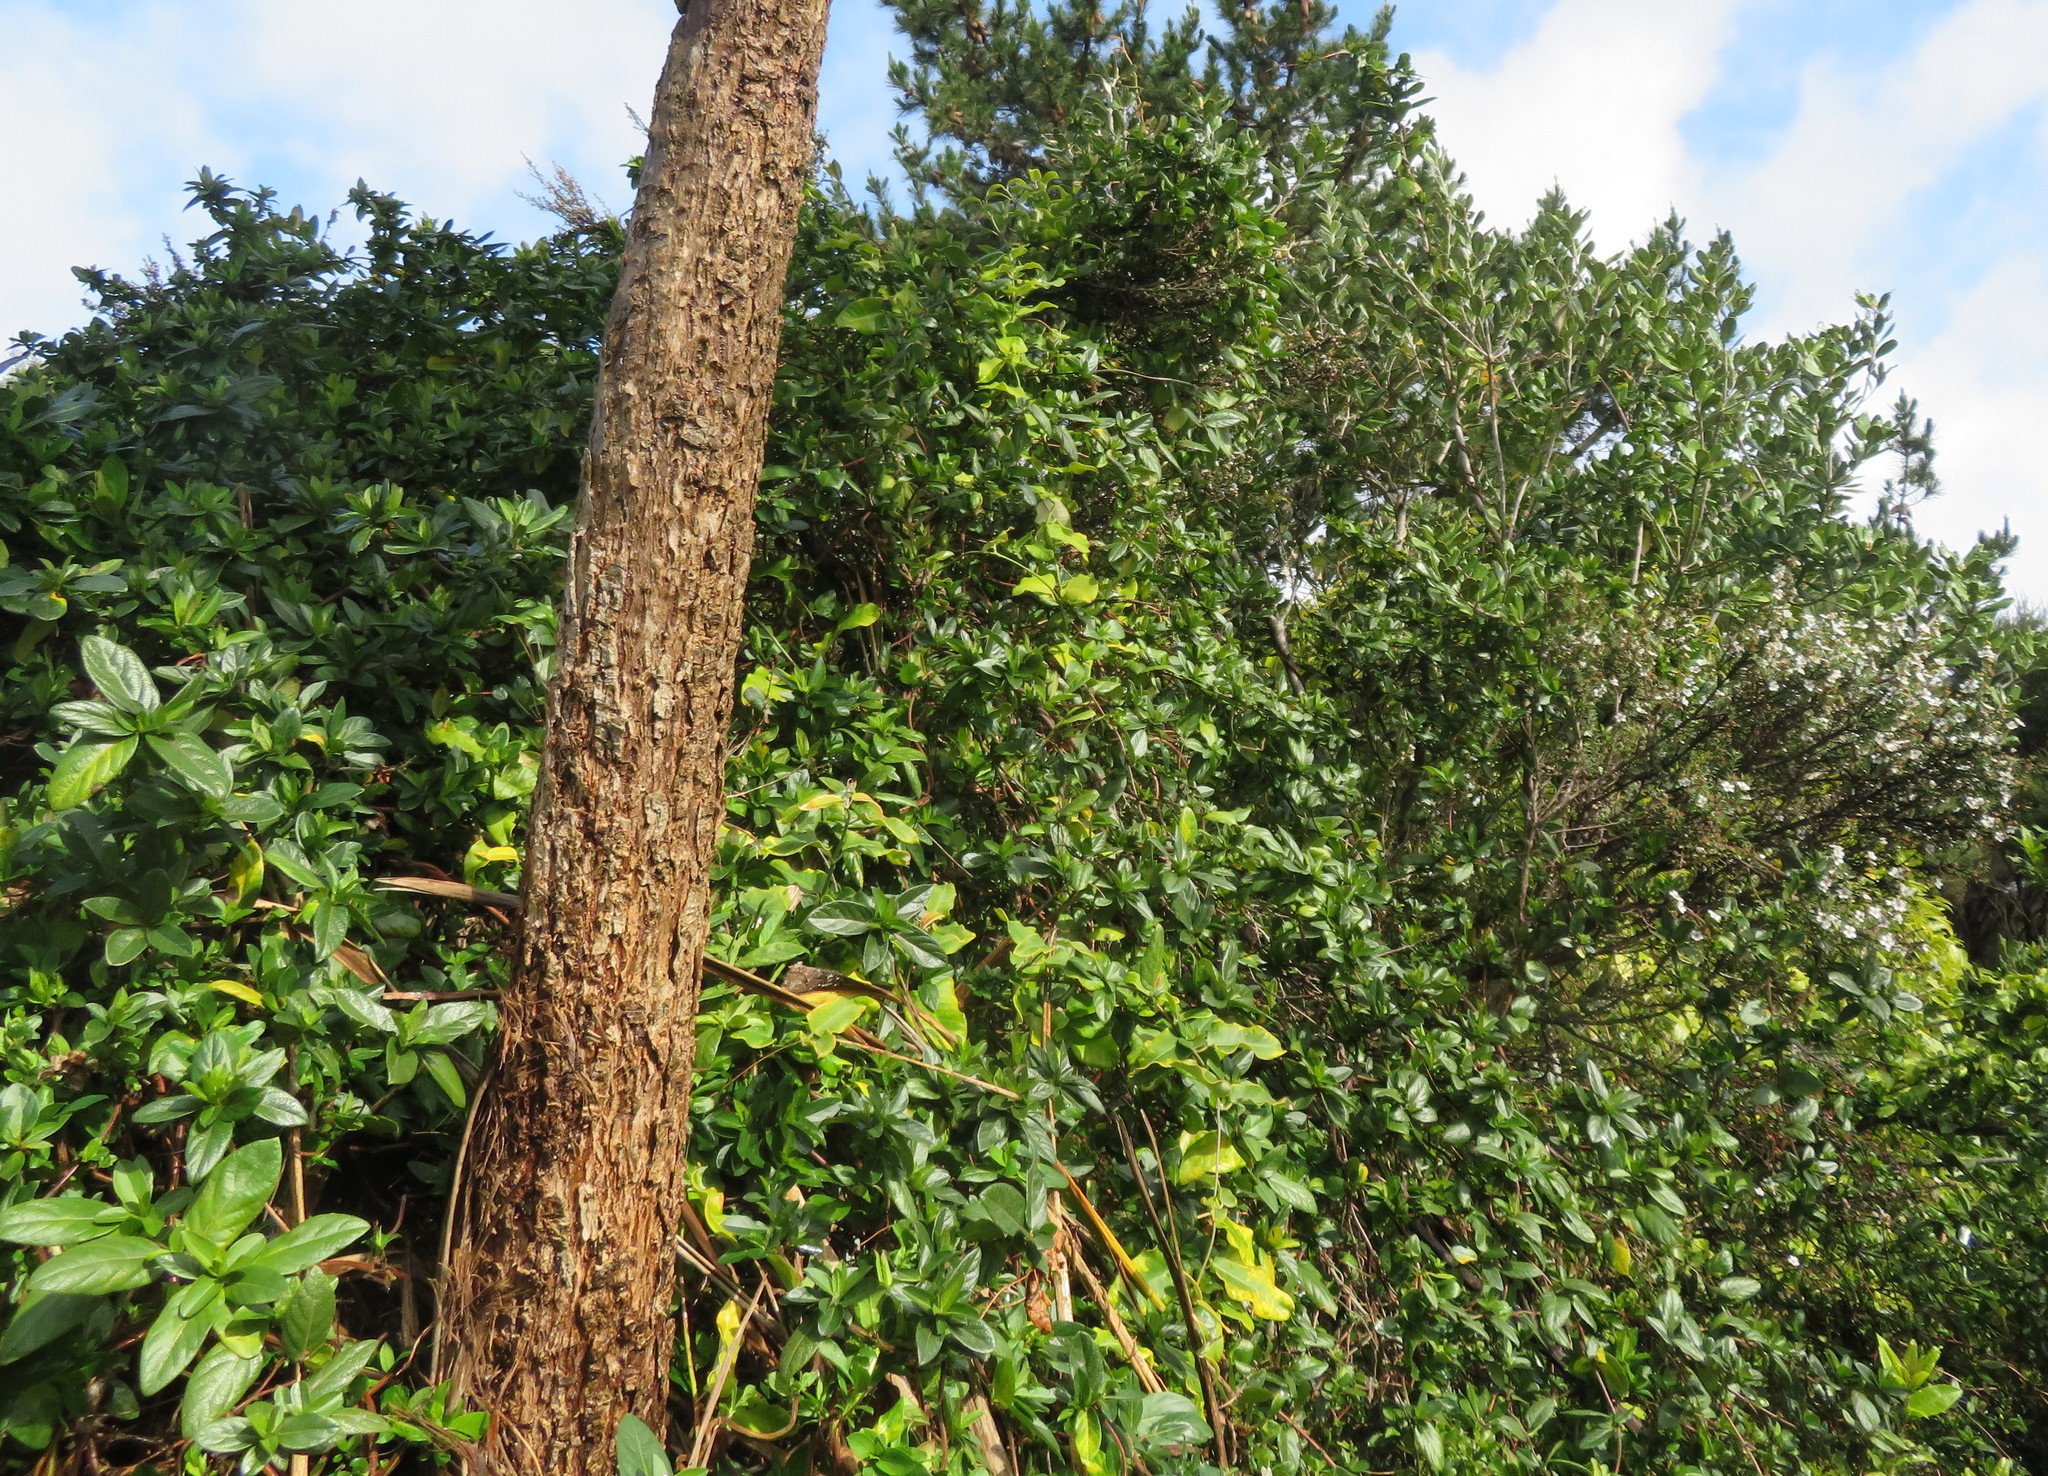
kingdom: Plantae
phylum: Tracheophyta
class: Magnoliopsida
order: Dipsacales
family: Caprifoliaceae
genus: Lonicera
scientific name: Lonicera japonica
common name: Japanese honeysuckle
